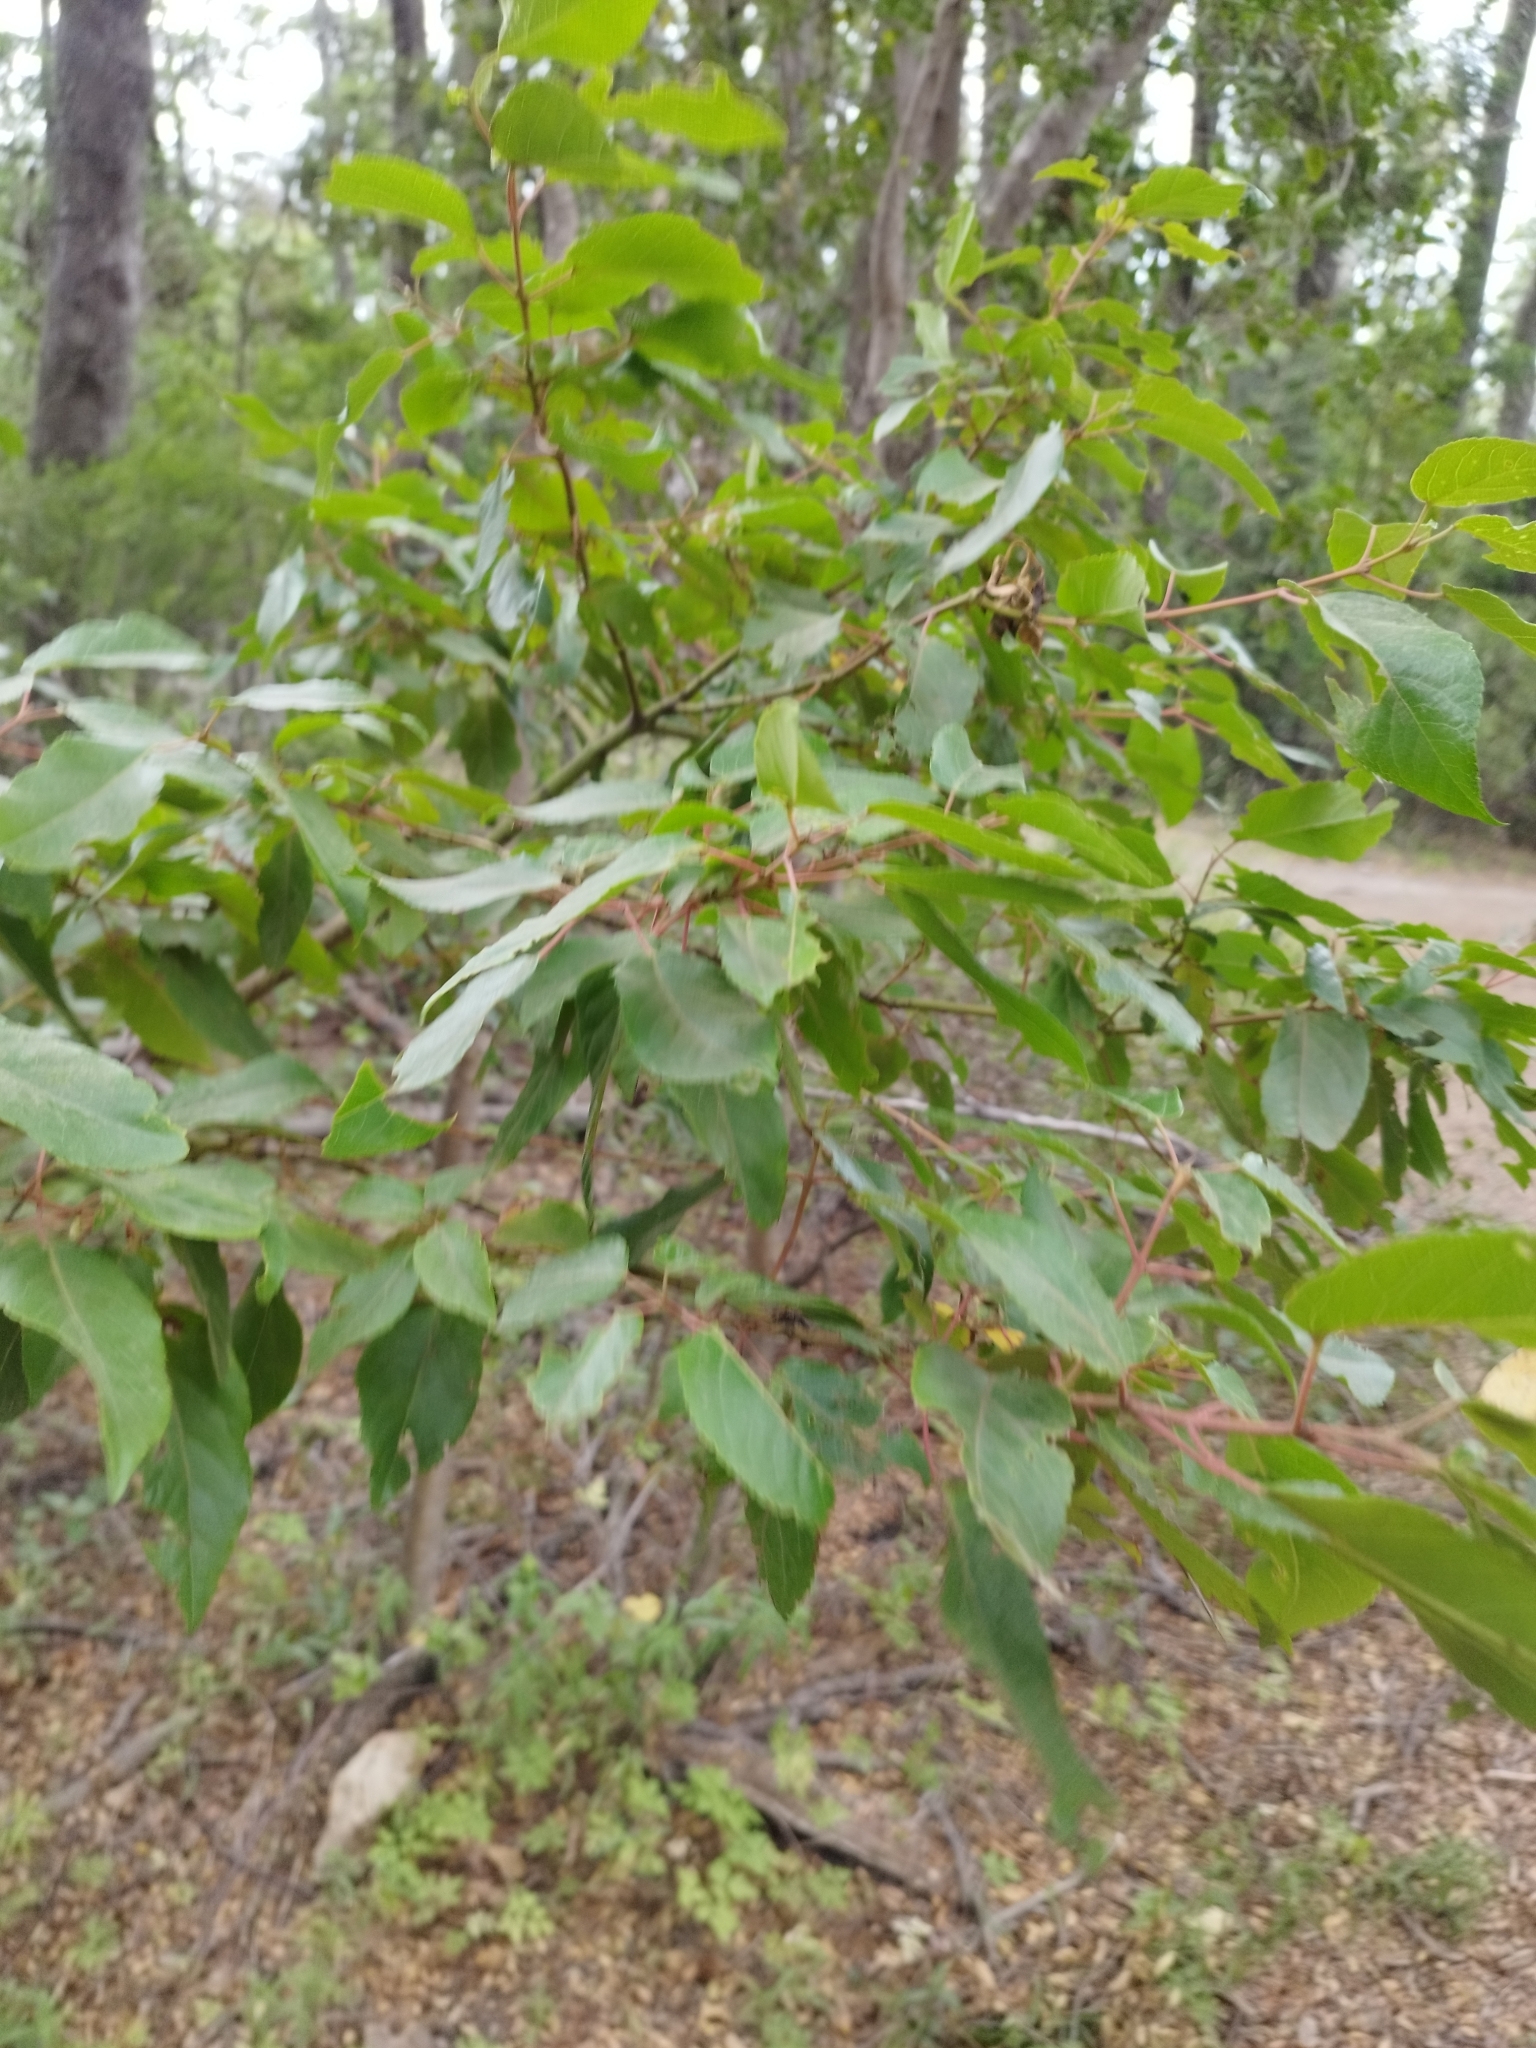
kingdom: Plantae
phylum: Tracheophyta
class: Magnoliopsida
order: Oxalidales
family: Elaeocarpaceae
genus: Aristotelia
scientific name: Aristotelia chilensis
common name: Maquei
